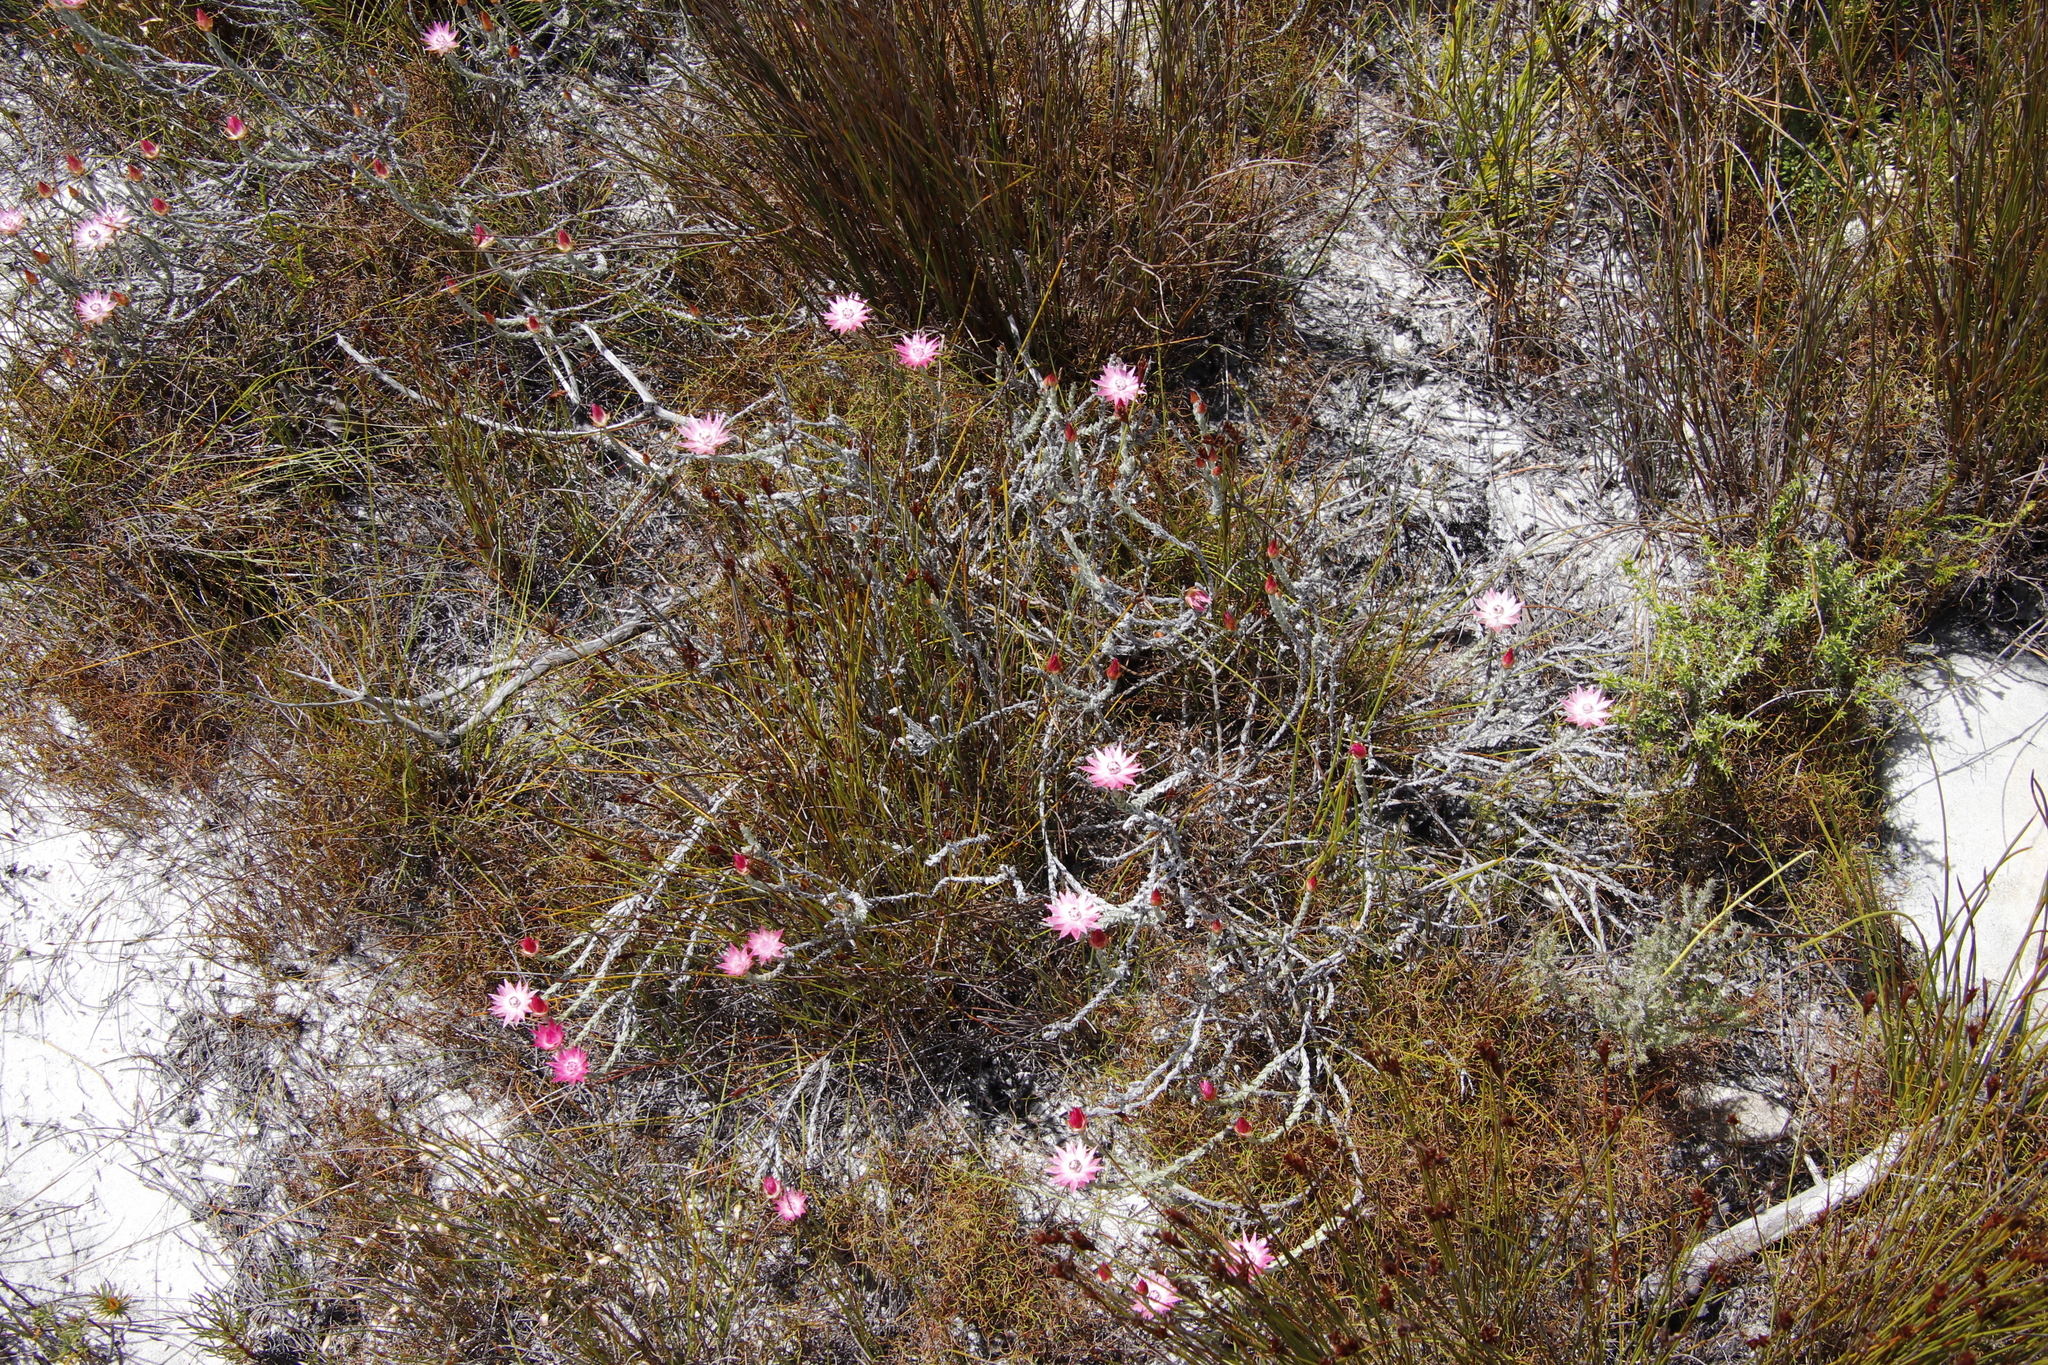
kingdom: Plantae
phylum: Tracheophyta
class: Magnoliopsida
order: Asterales
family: Asteraceae
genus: Syncarpha
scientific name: Syncarpha canescens
